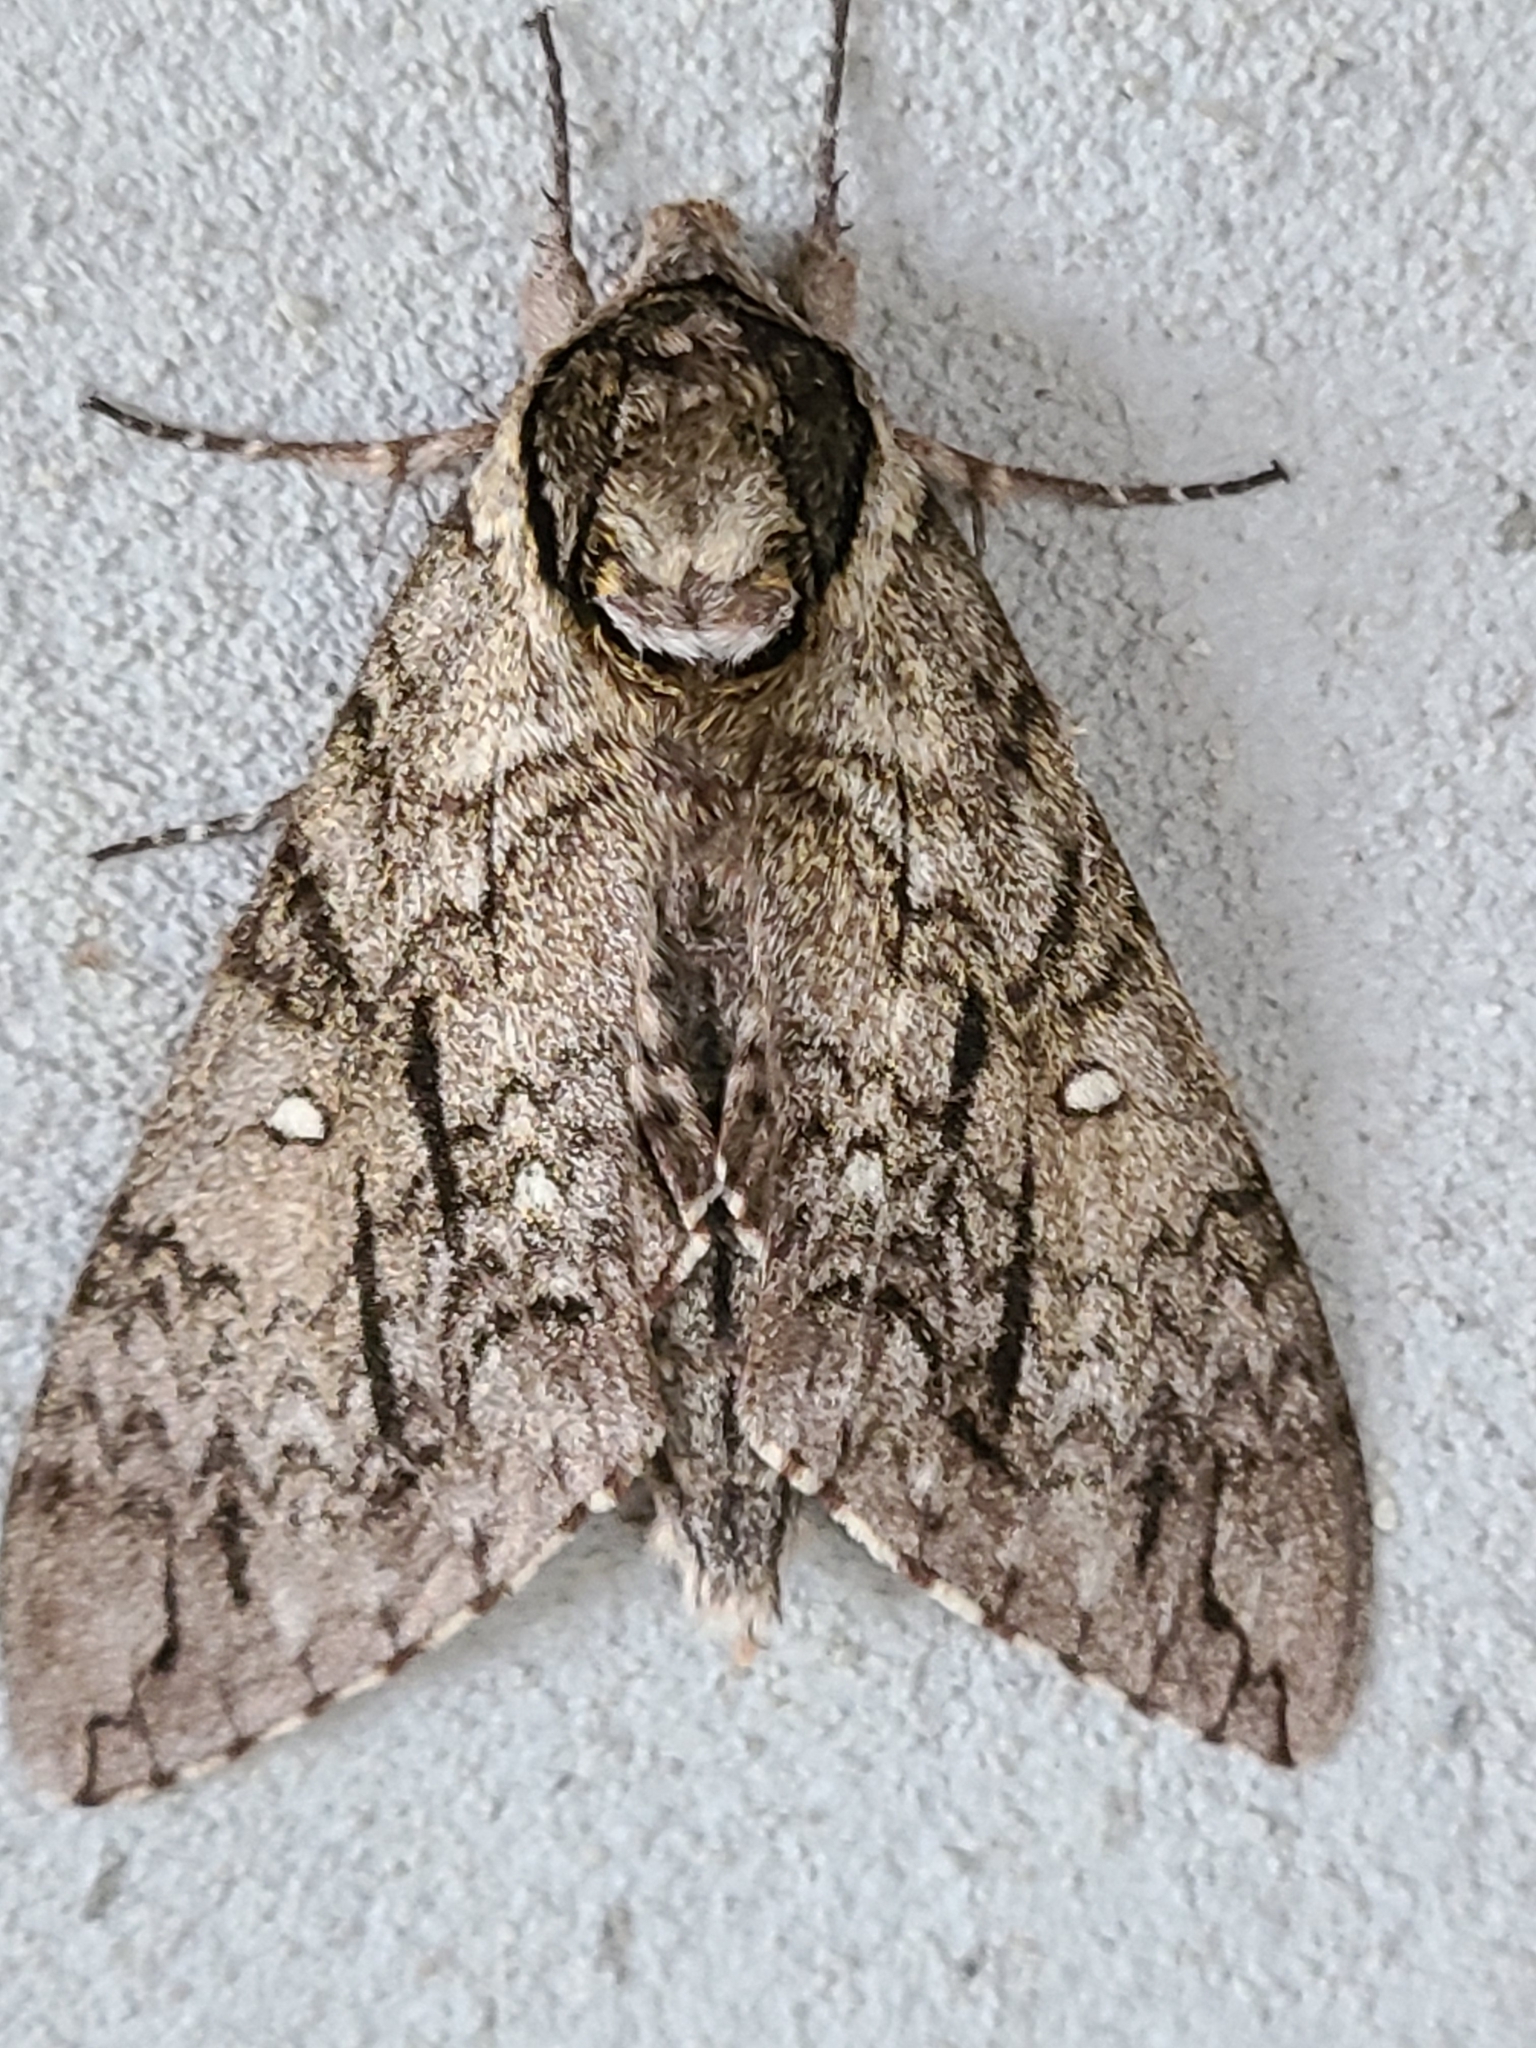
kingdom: Animalia
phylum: Arthropoda
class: Insecta
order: Lepidoptera
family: Sphingidae
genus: Ceratomia
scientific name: Ceratomia undulosa
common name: Waved sphinx
